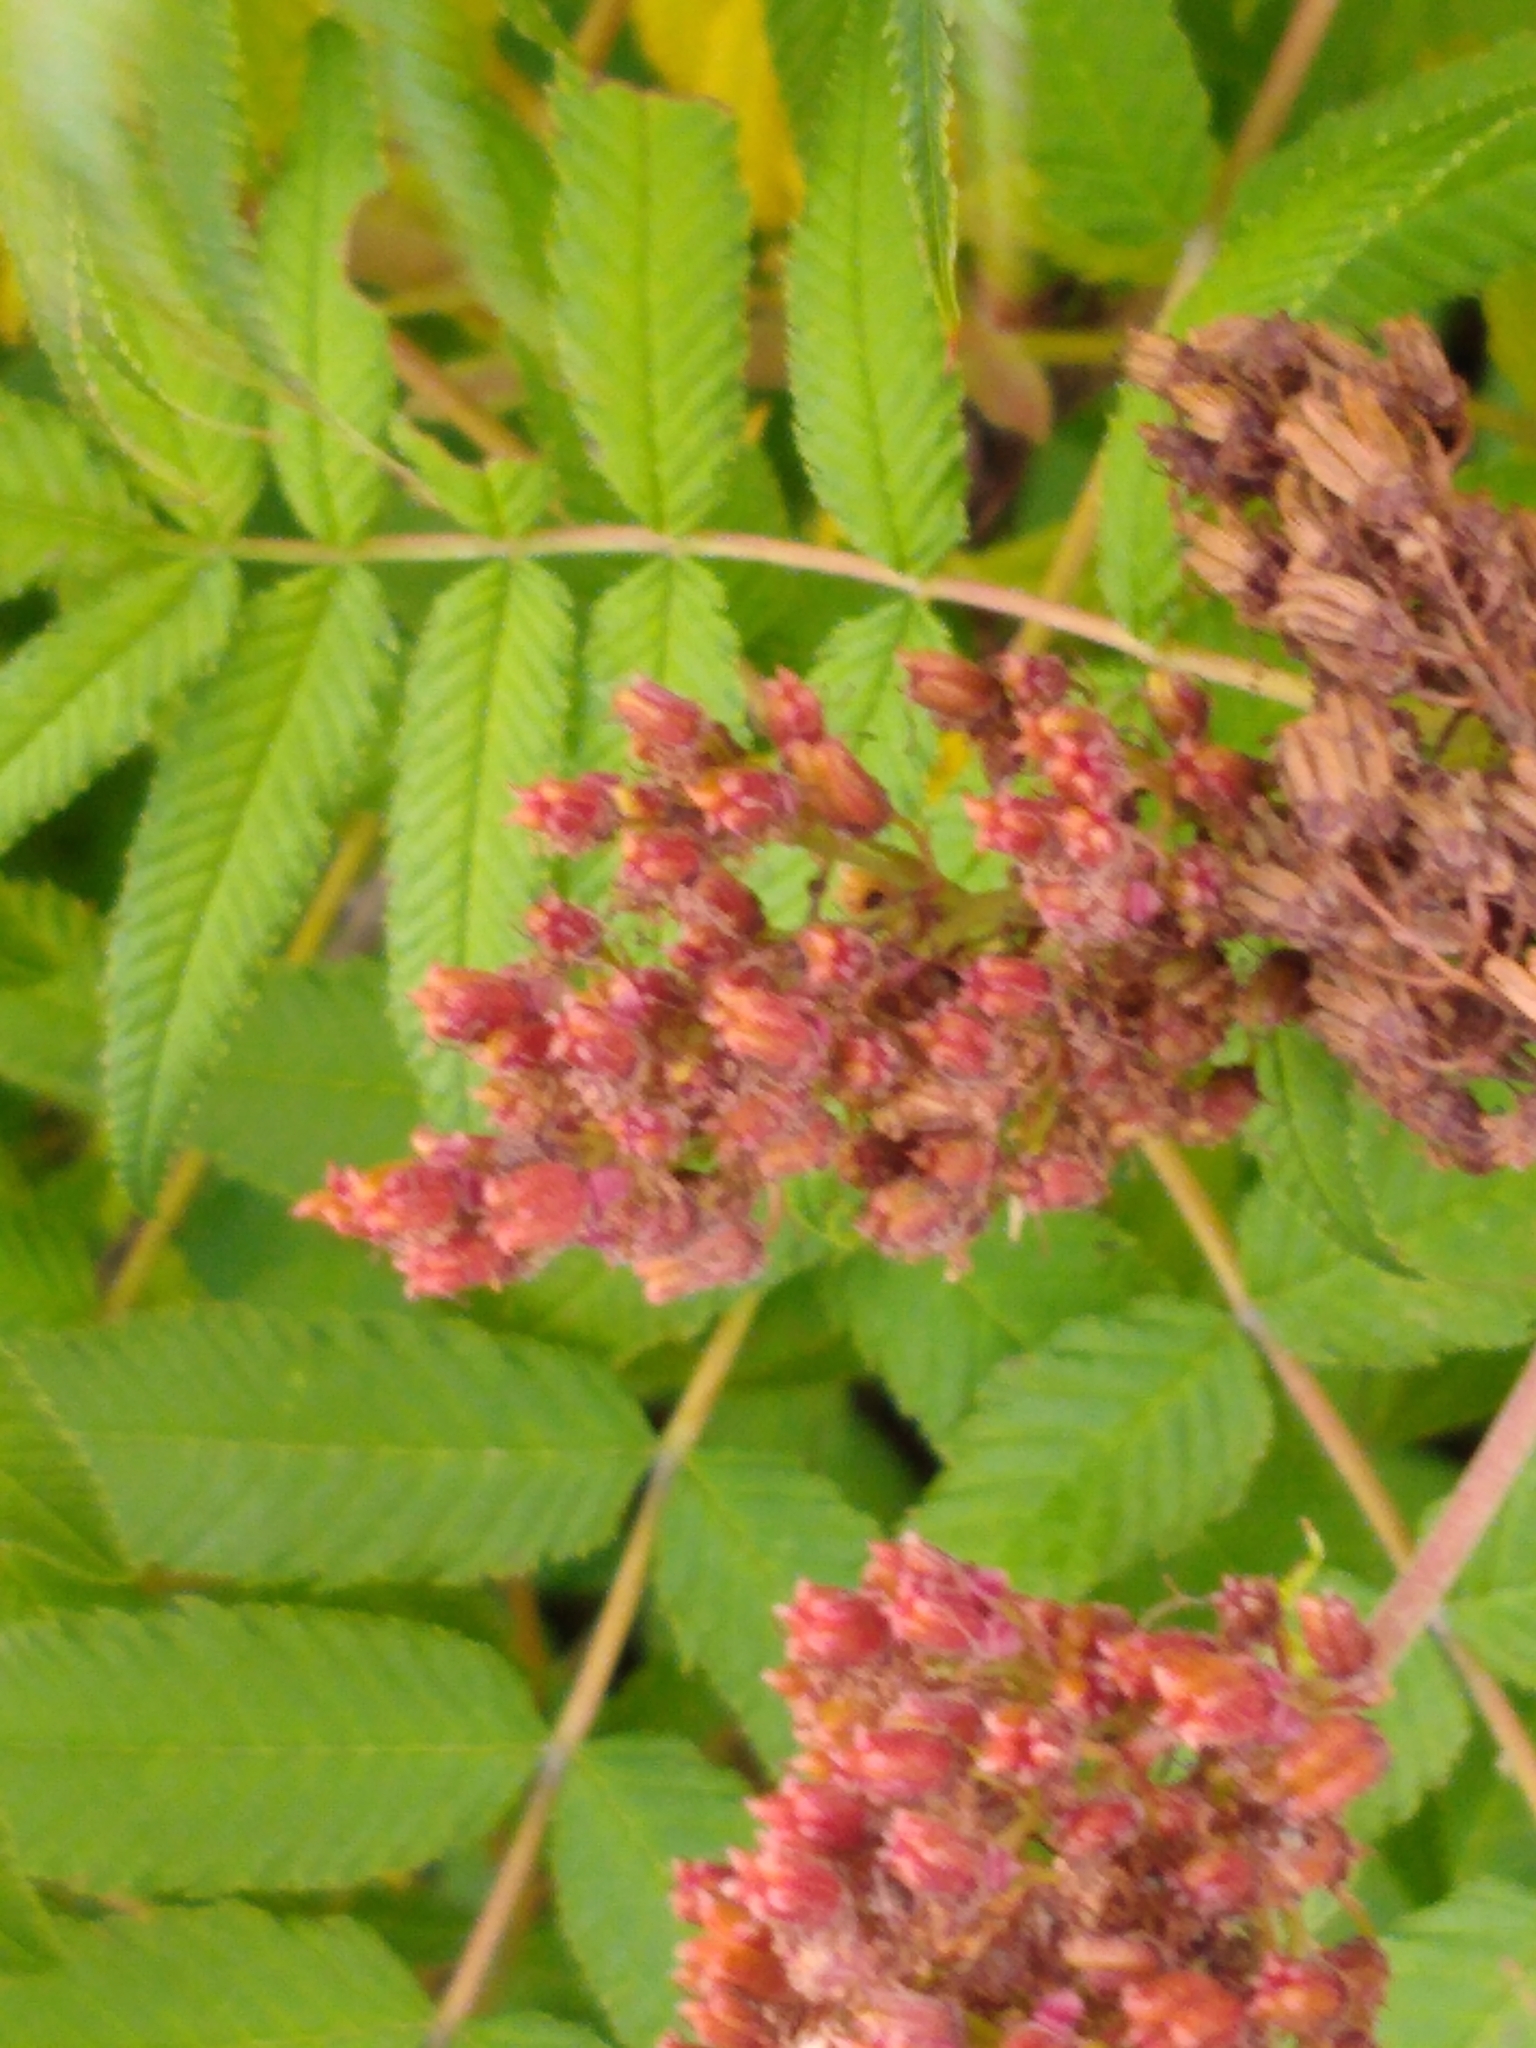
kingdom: Plantae
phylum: Tracheophyta
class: Magnoliopsida
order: Rosales
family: Rosaceae
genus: Sorbaria
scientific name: Sorbaria sorbifolia
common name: False spiraea
